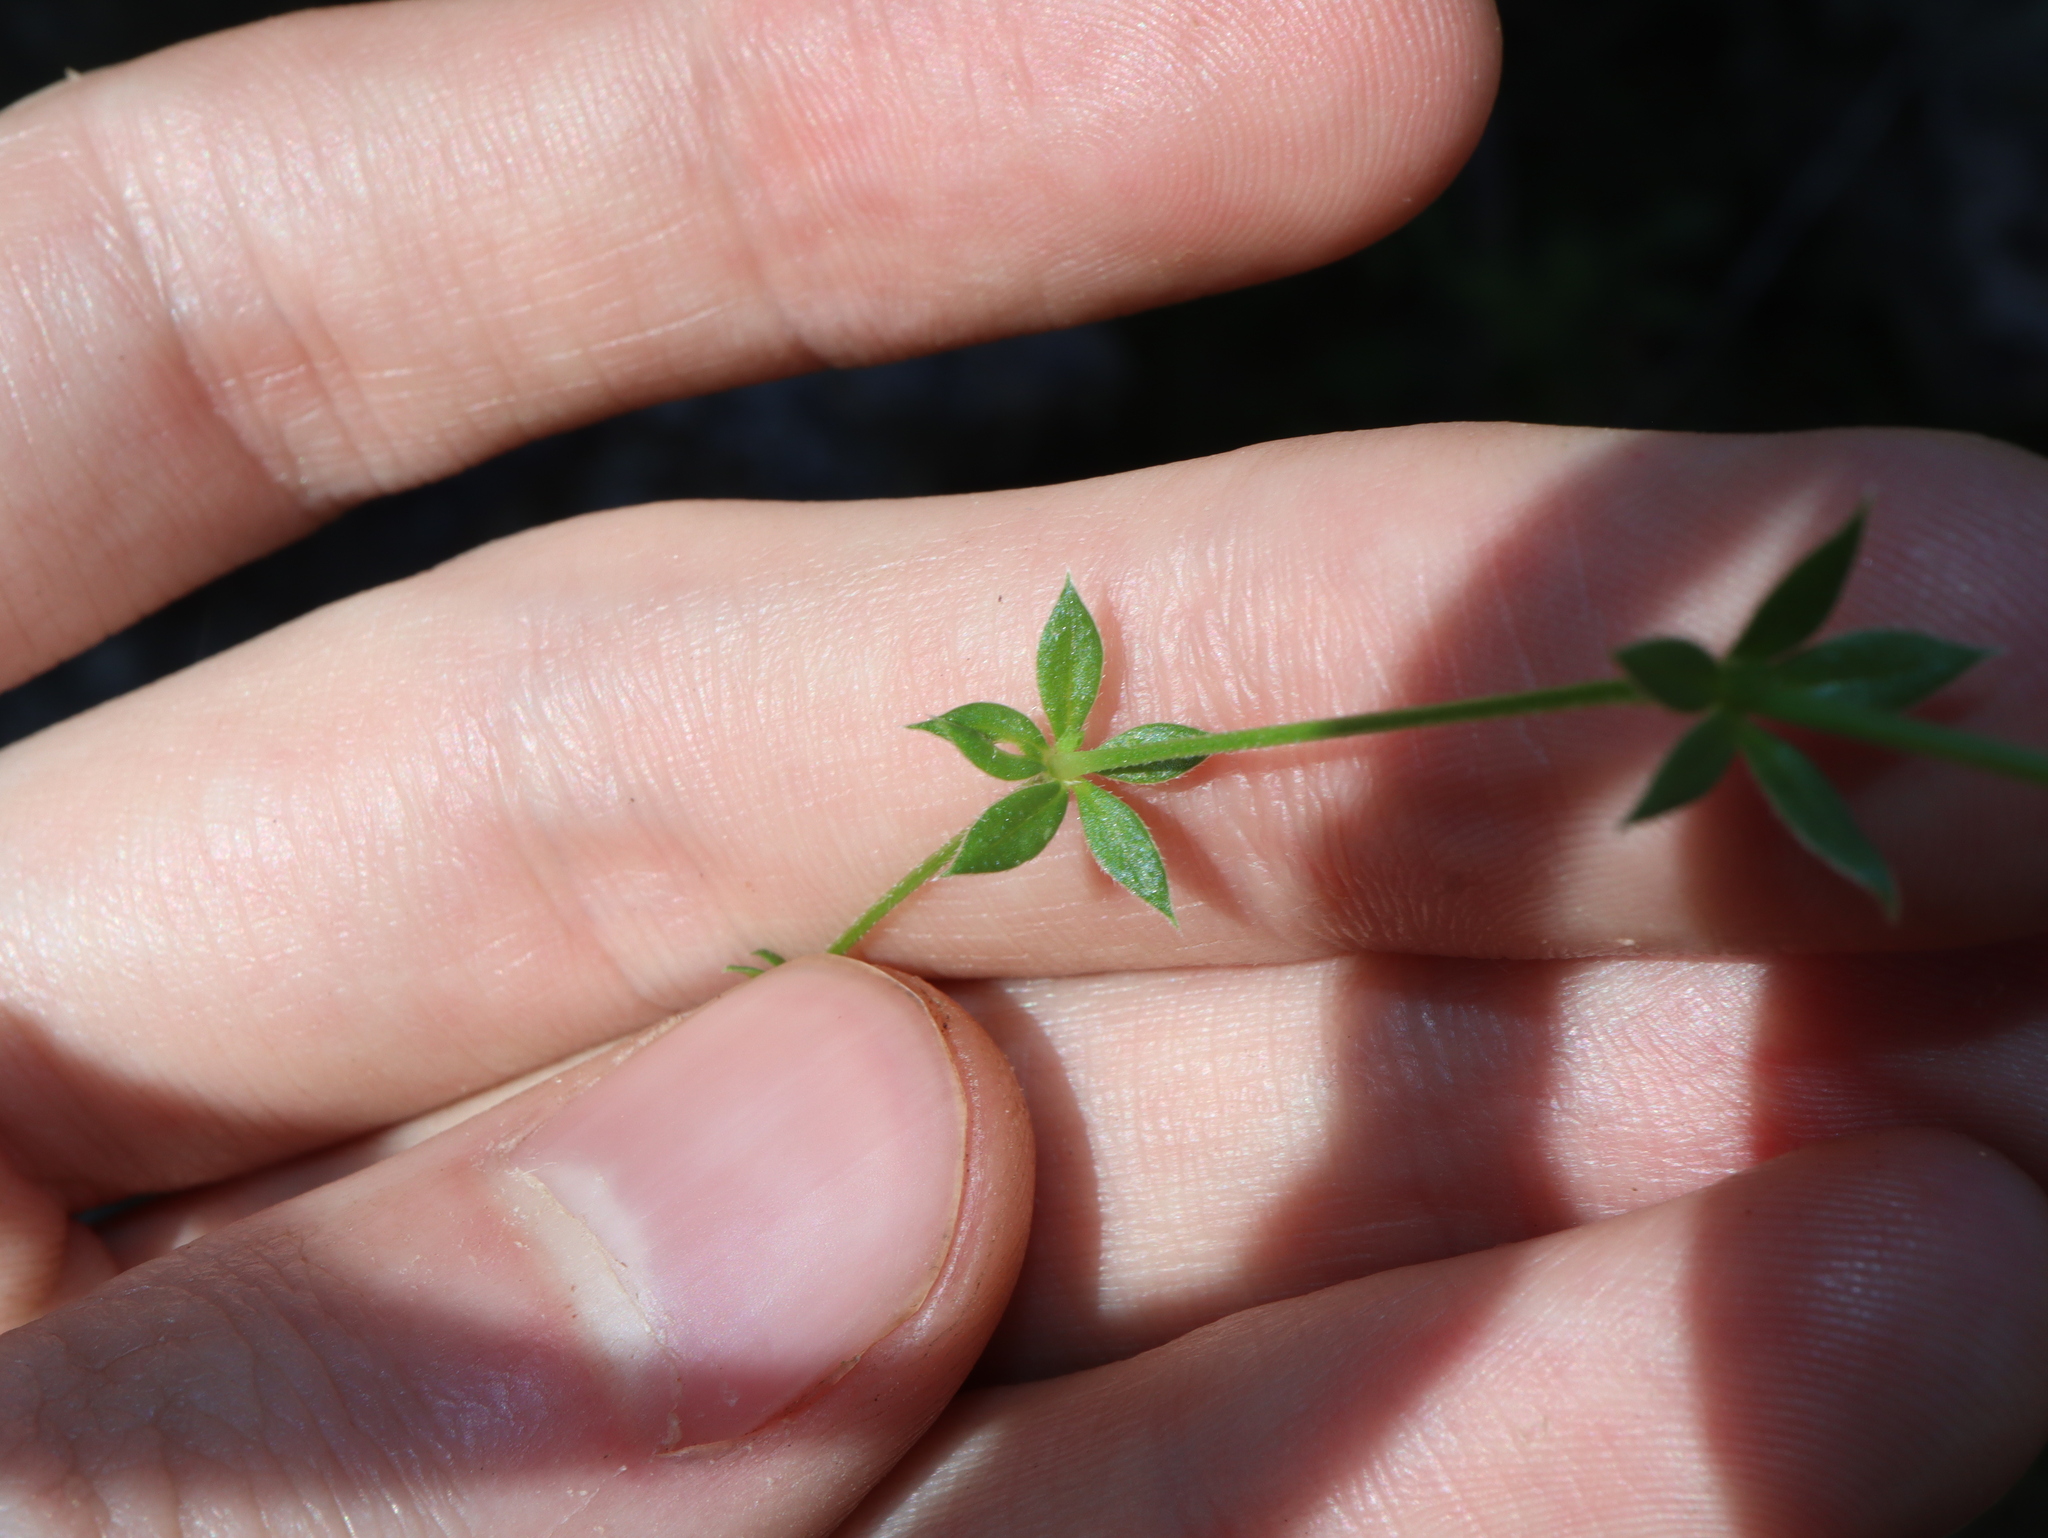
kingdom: Plantae
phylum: Tracheophyta
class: Magnoliopsida
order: Gentianales
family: Rubiaceae
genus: Sherardia
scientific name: Sherardia arvensis
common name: Field madder
